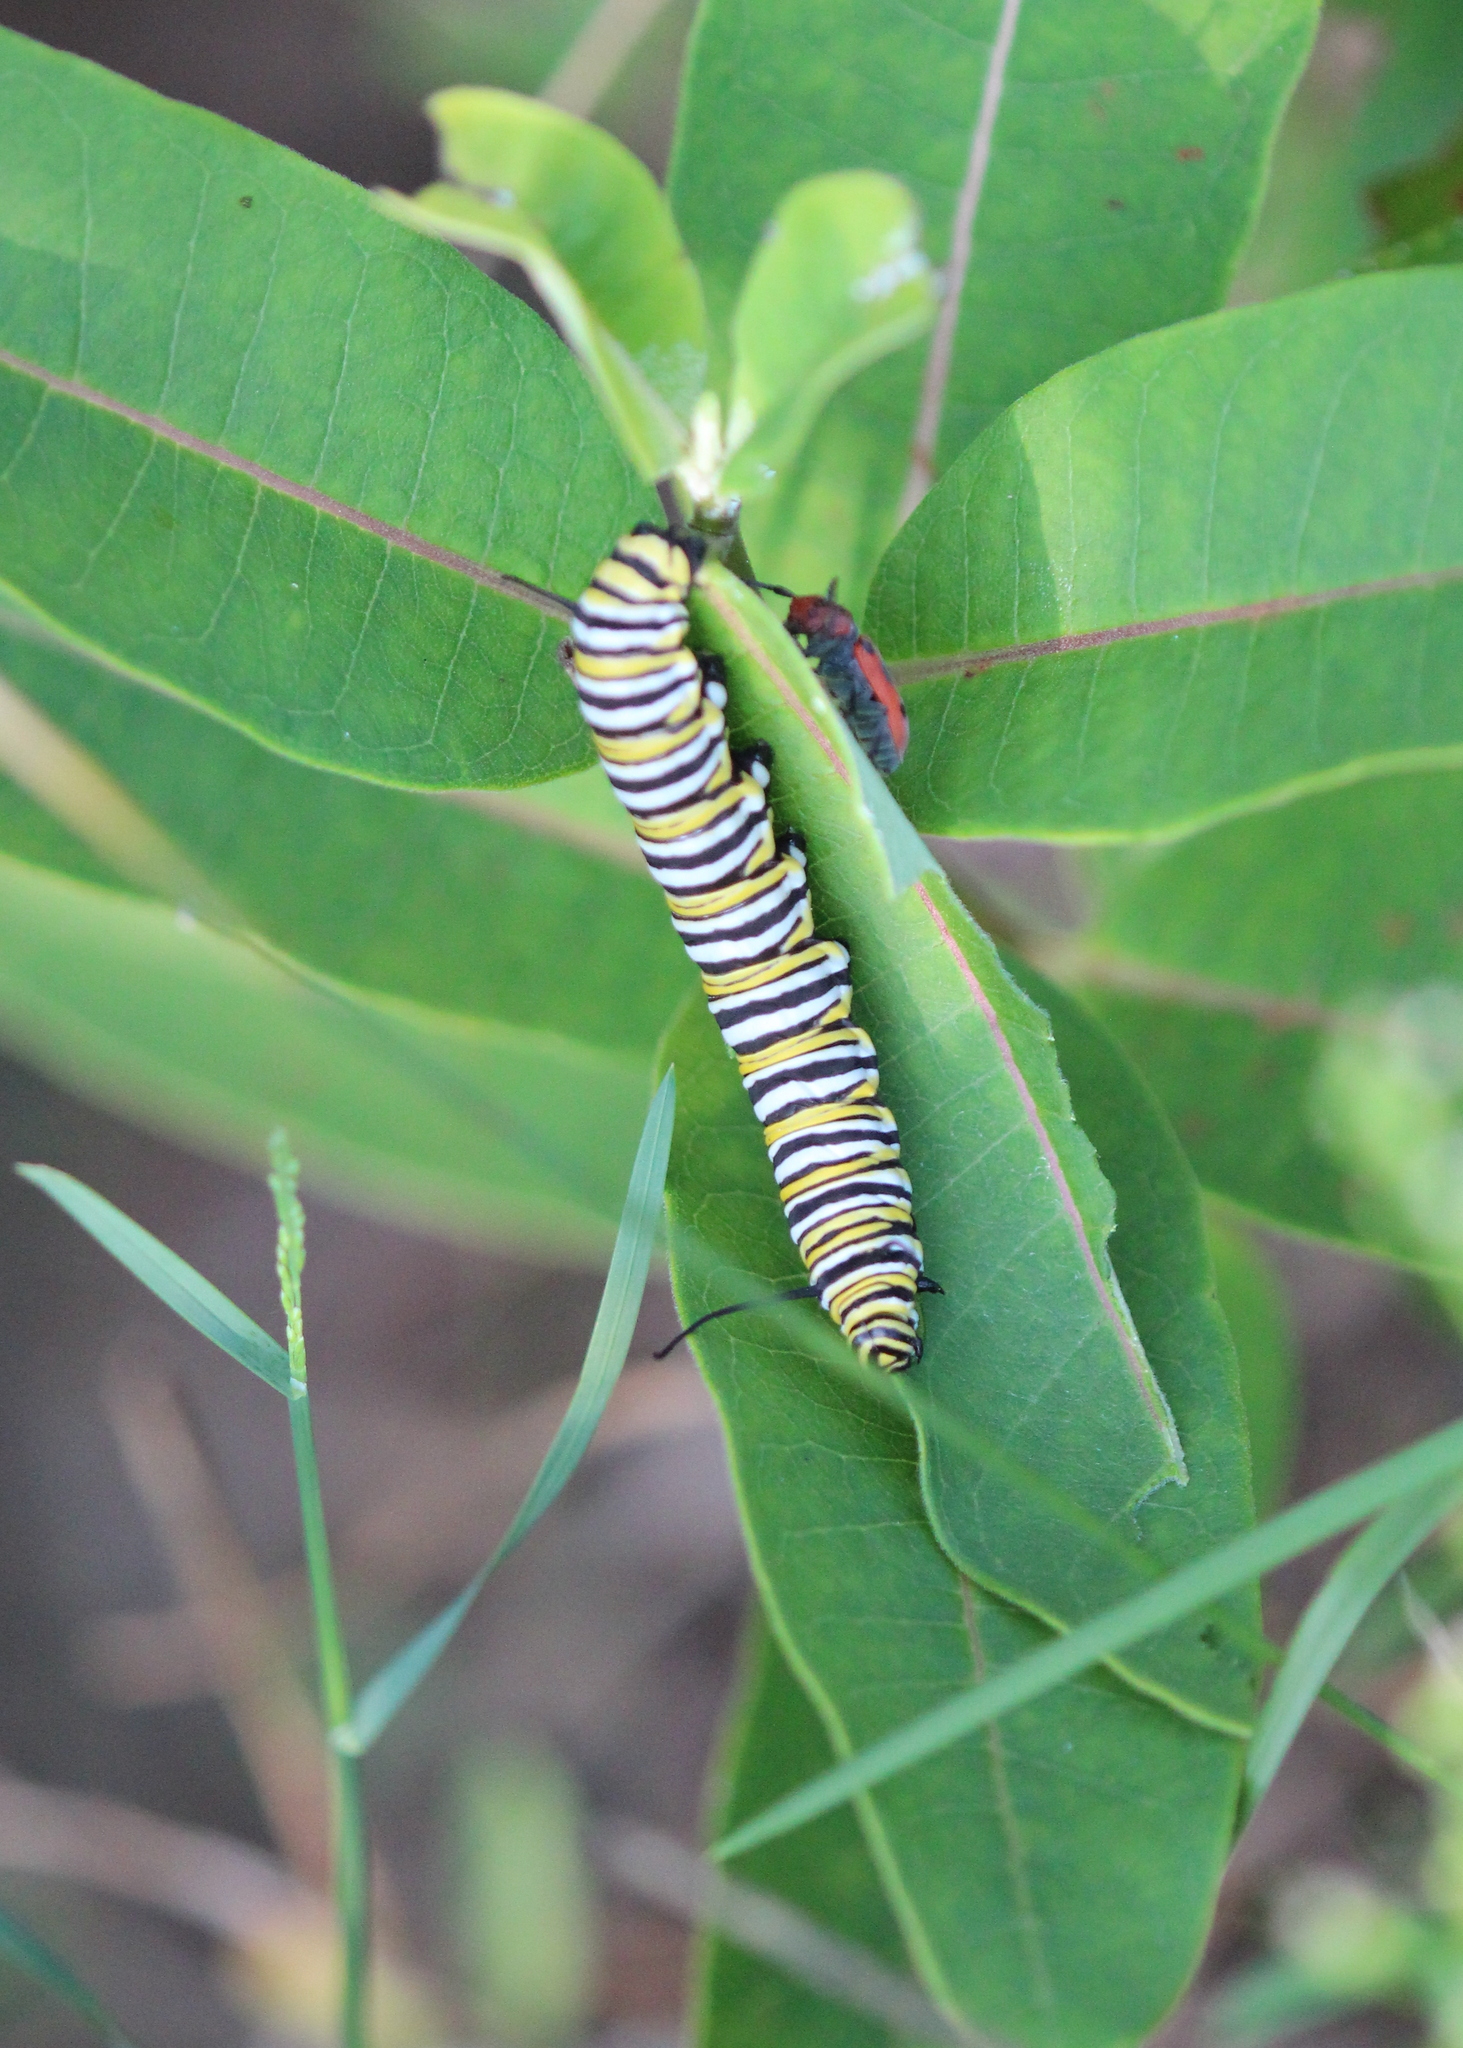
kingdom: Animalia
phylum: Arthropoda
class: Insecta
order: Lepidoptera
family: Nymphalidae
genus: Danaus
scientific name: Danaus plexippus
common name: Monarch
